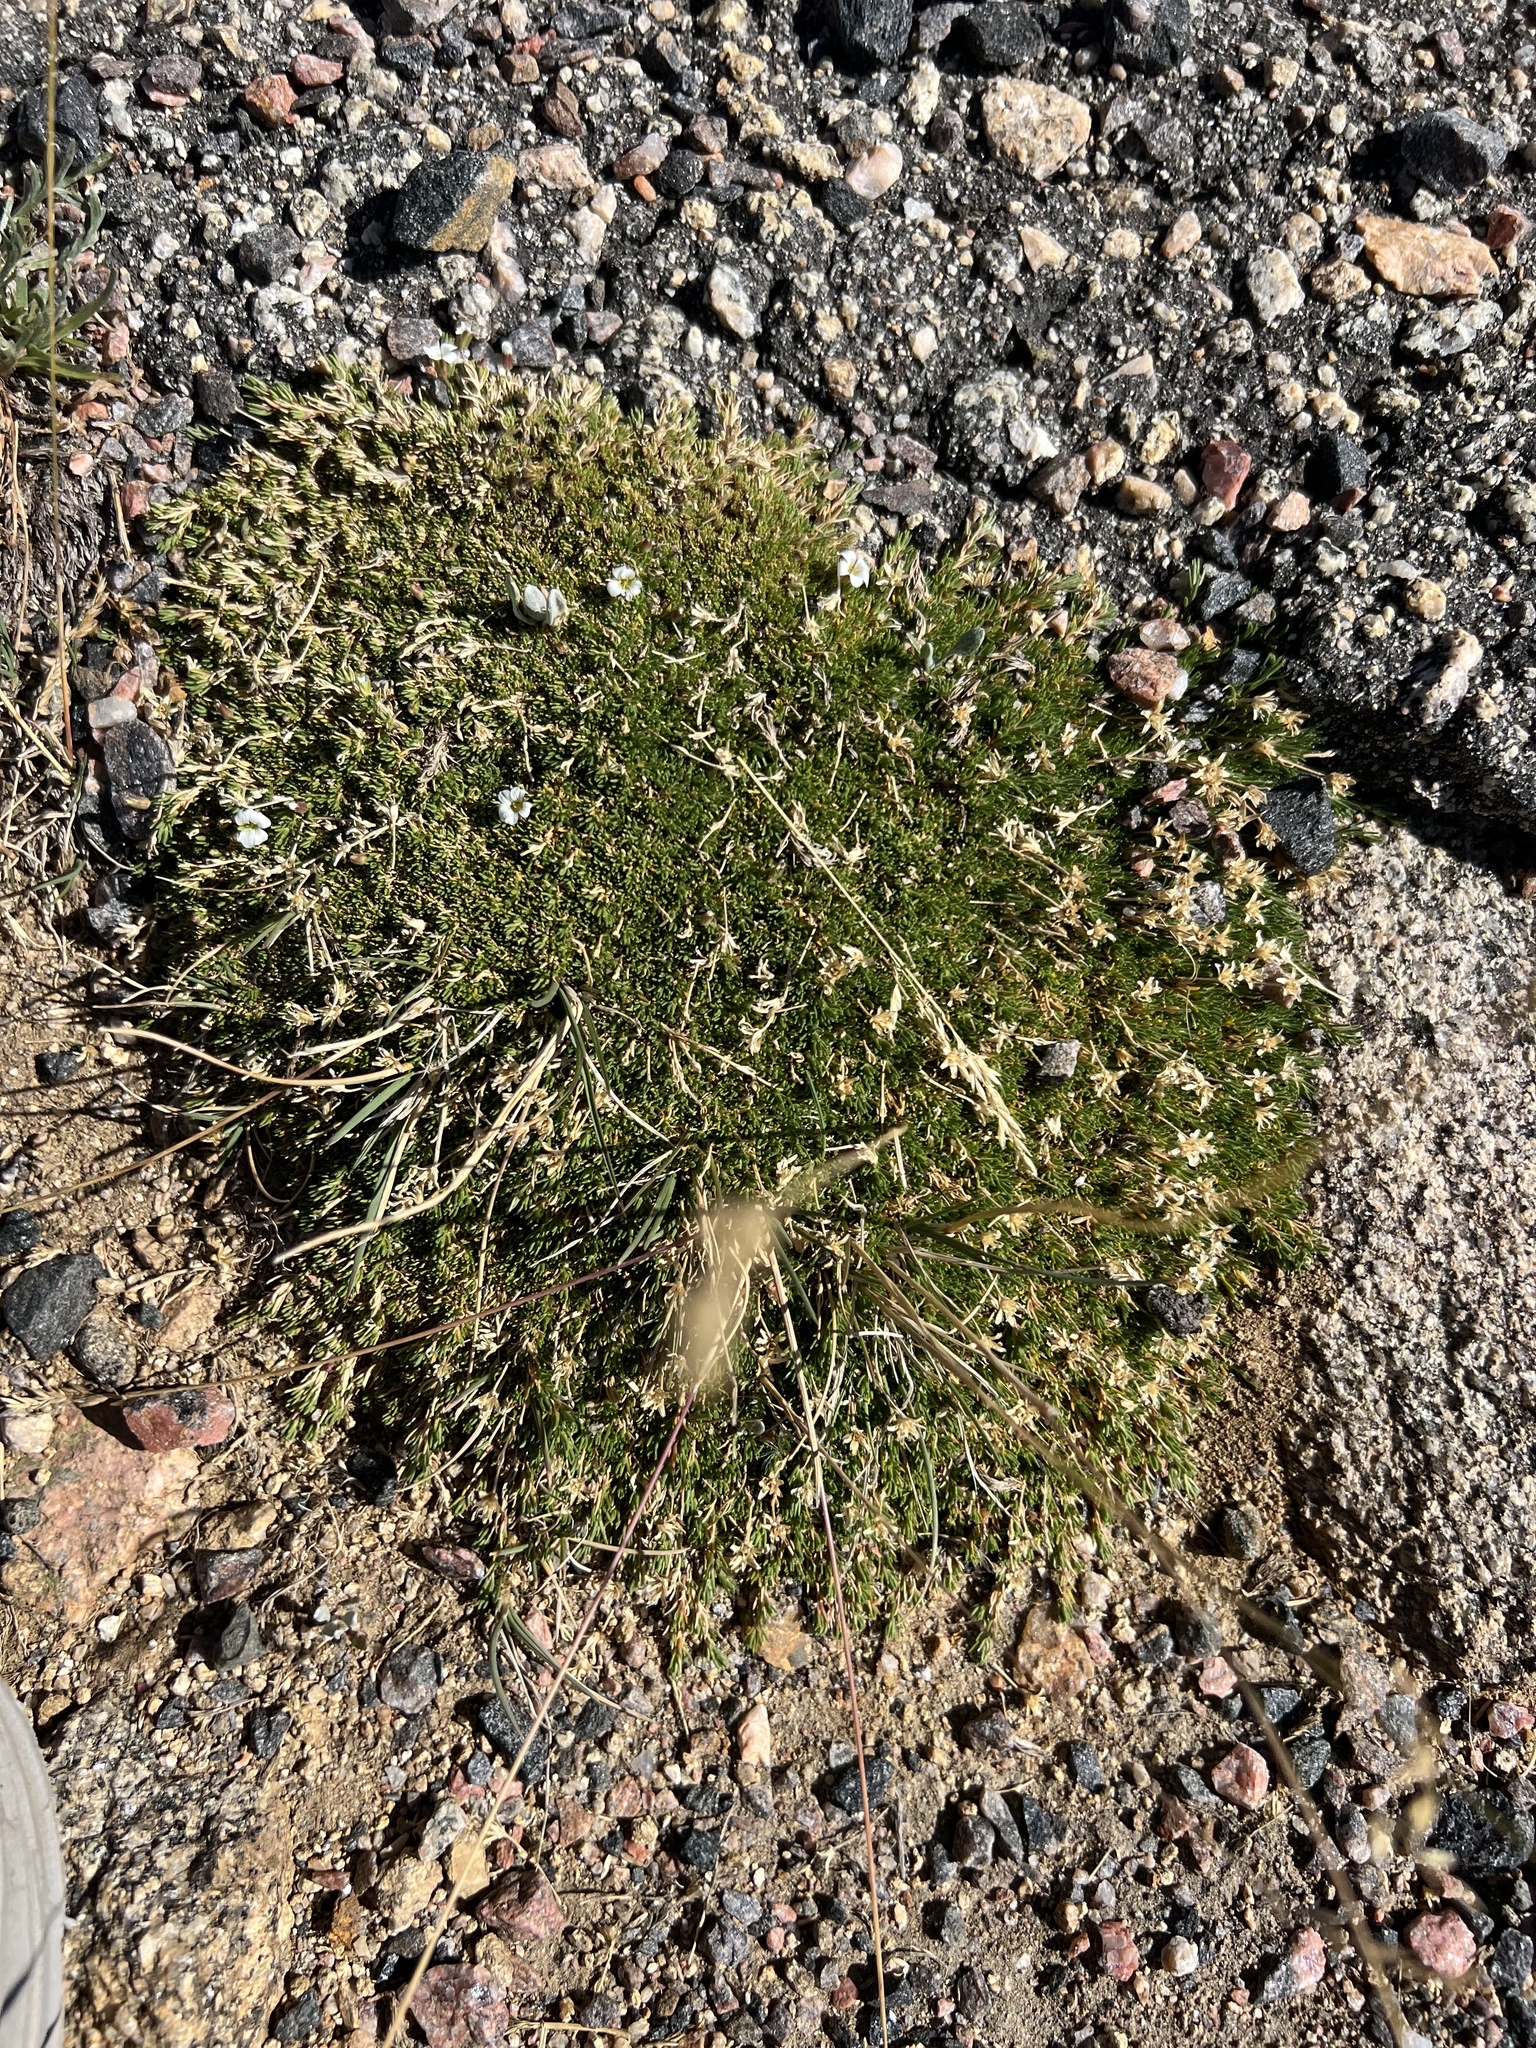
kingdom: Plantae
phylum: Tracheophyta
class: Magnoliopsida
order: Caryophyllales
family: Caryophyllaceae
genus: Cherleria
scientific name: Cherleria obtusiloba
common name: Alpine stitchwort
